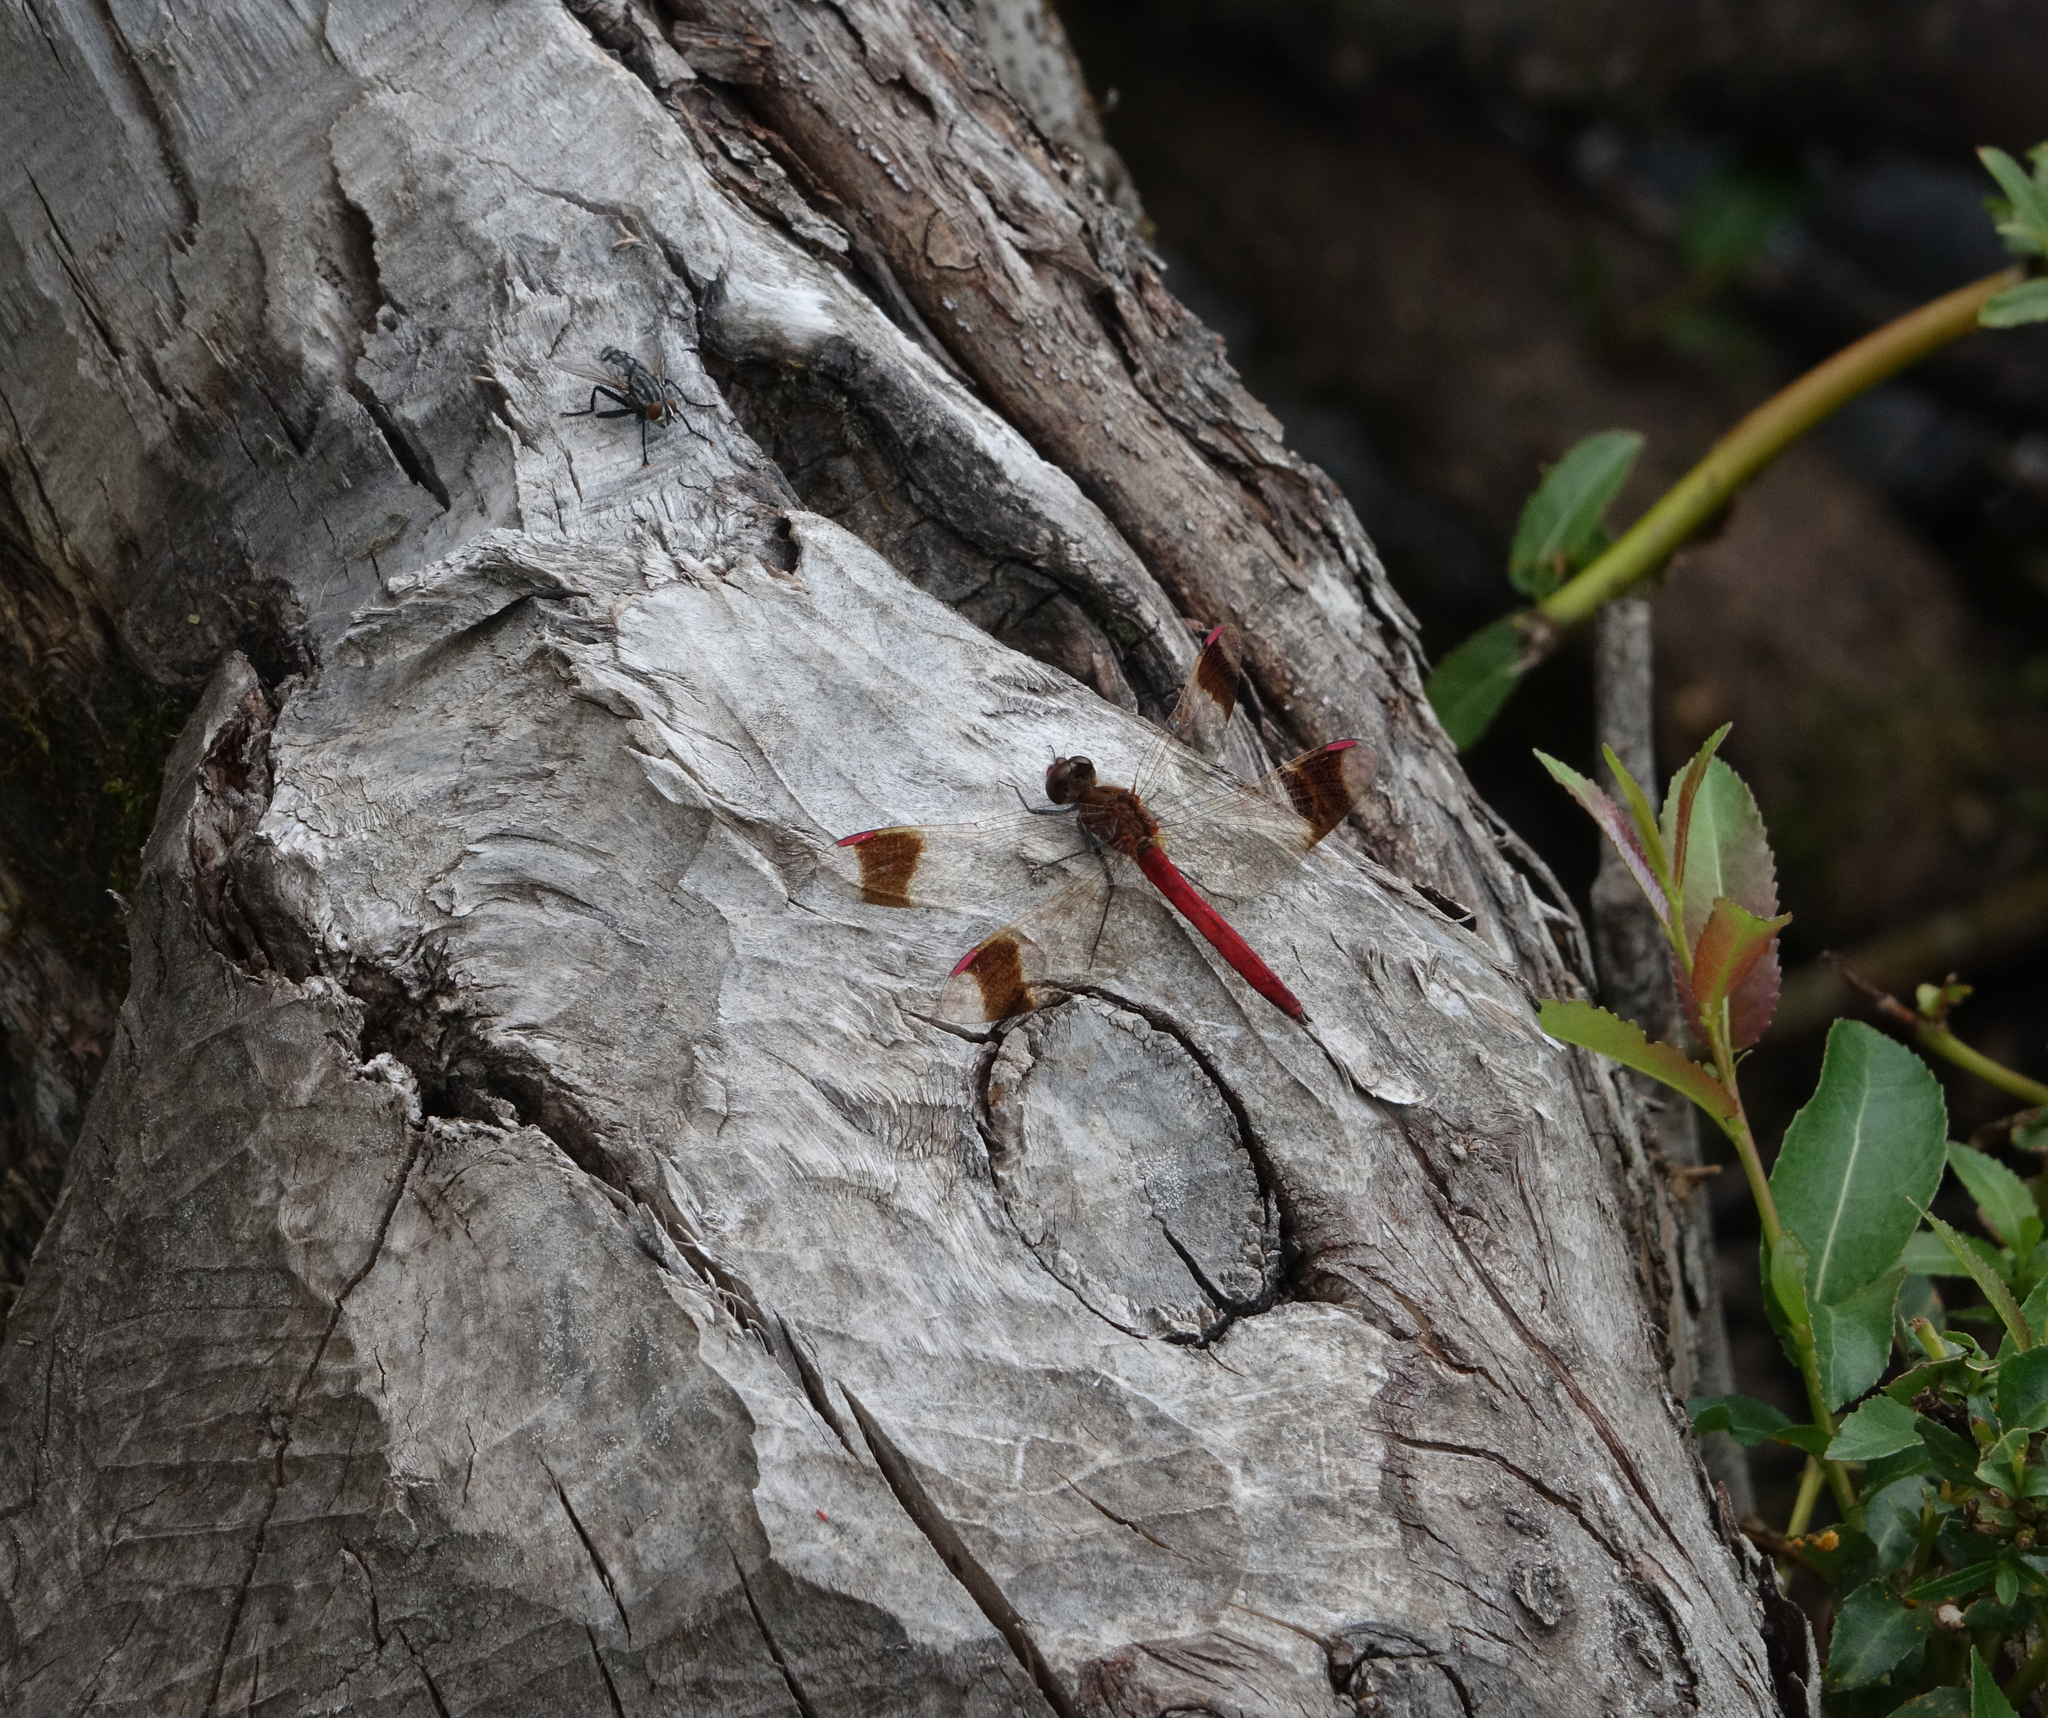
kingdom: Animalia
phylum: Chordata
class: Mammalia
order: Rodentia
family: Castoridae
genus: Castor
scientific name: Castor fiber
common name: Eurasian beaver
